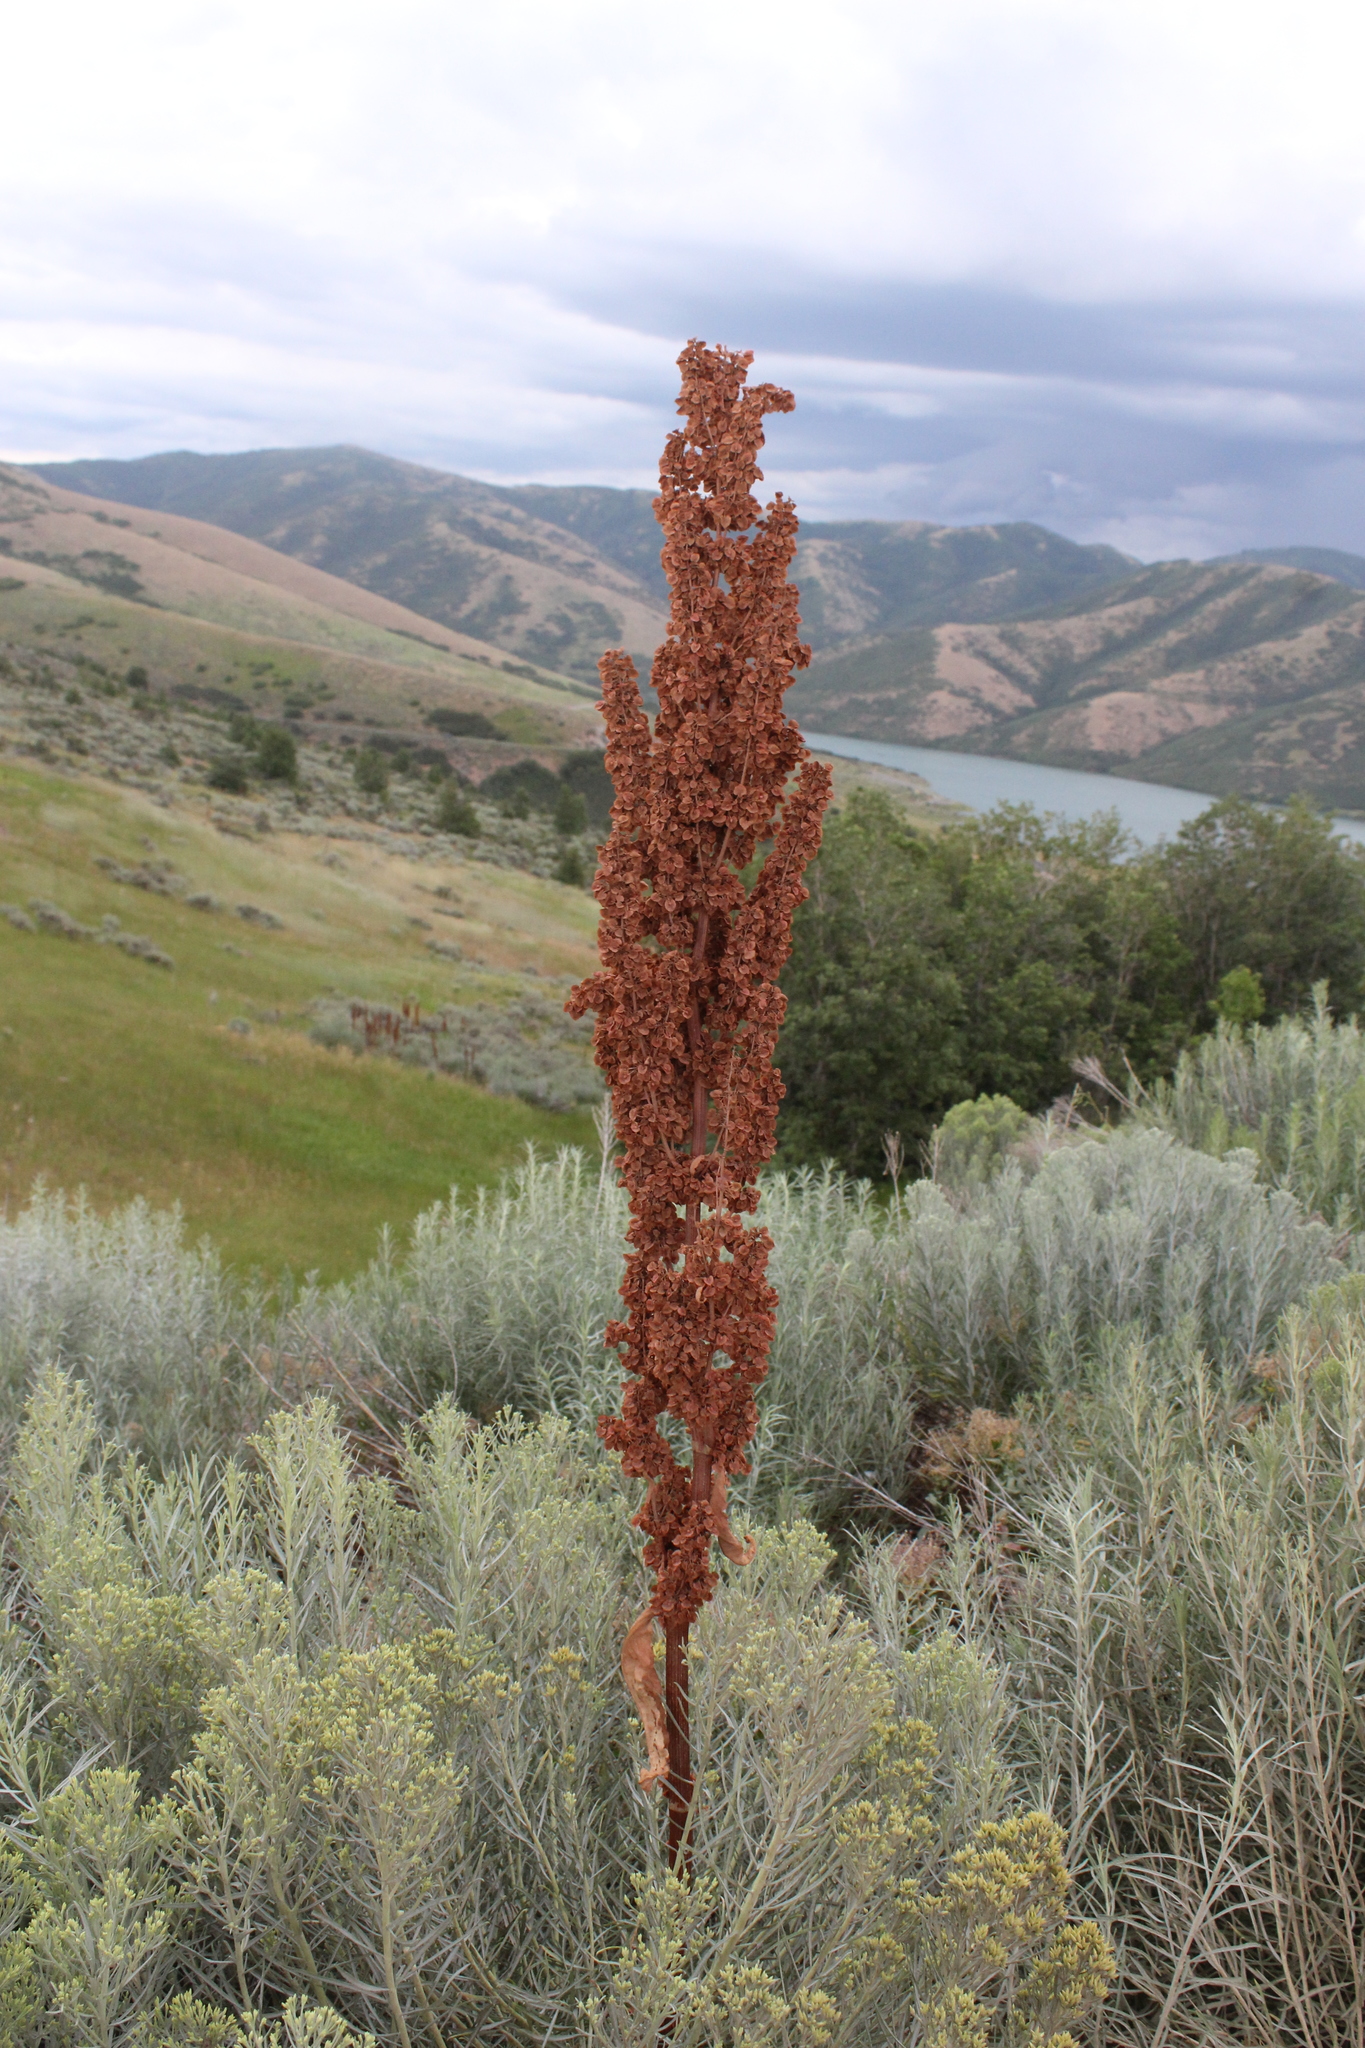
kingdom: Plantae
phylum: Tracheophyta
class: Magnoliopsida
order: Caryophyllales
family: Polygonaceae
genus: Rumex
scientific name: Rumex crispus
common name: Curled dock
